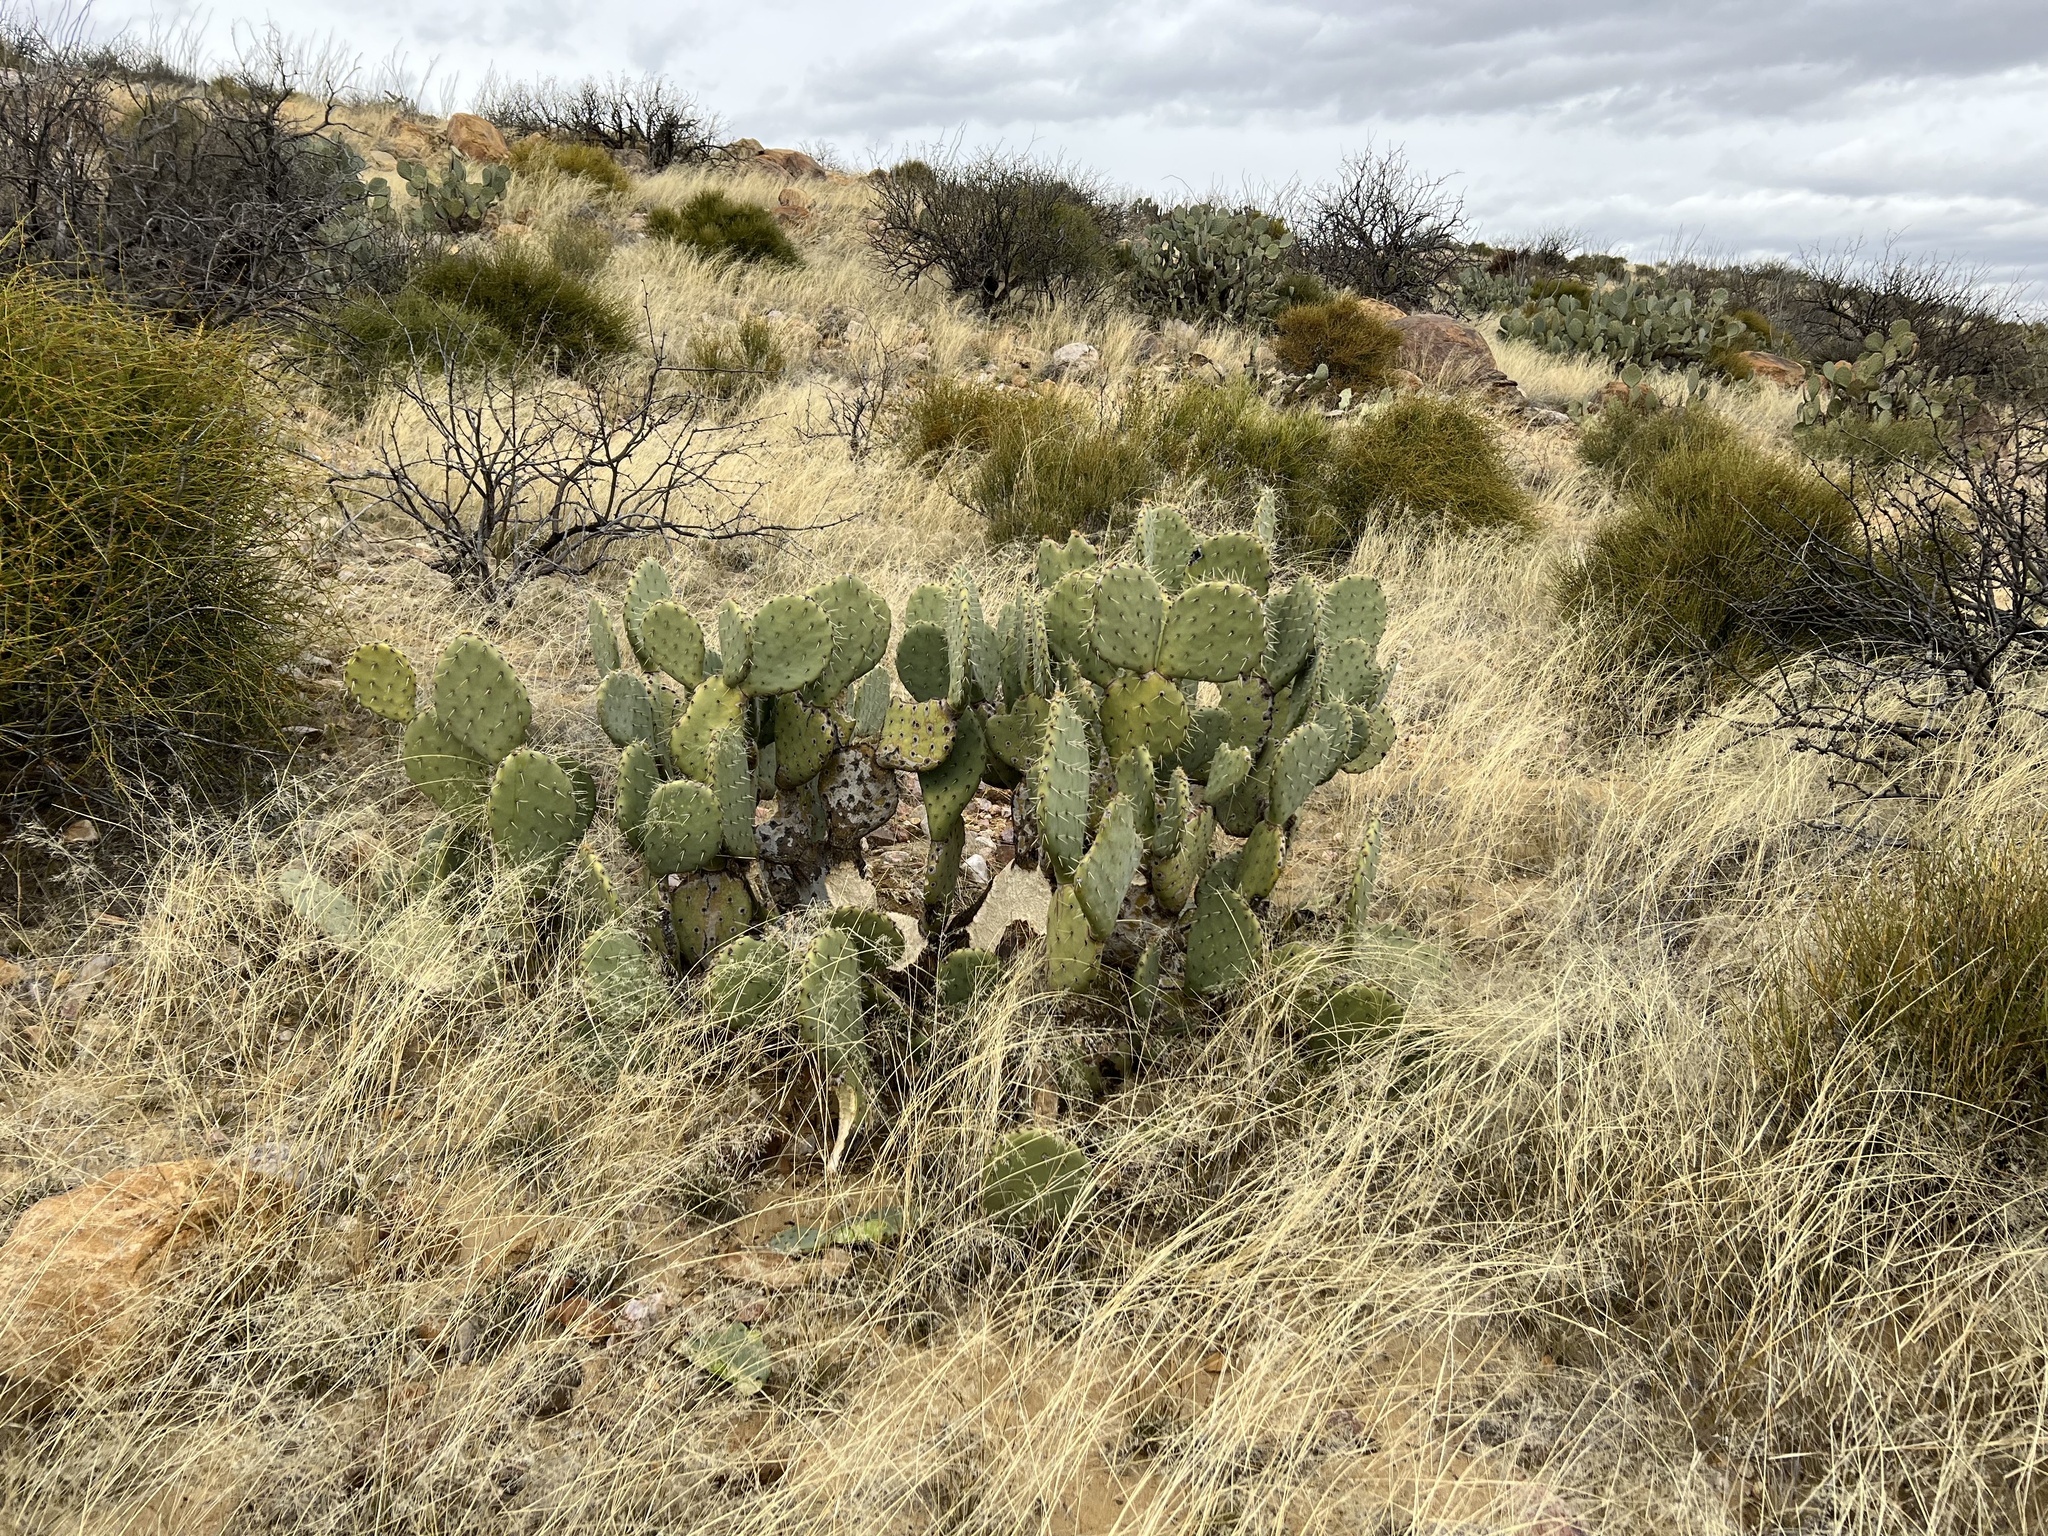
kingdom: Plantae
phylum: Tracheophyta
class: Magnoliopsida
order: Caryophyllales
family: Cactaceae
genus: Opuntia
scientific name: Opuntia engelmannii
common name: Cactus-apple
